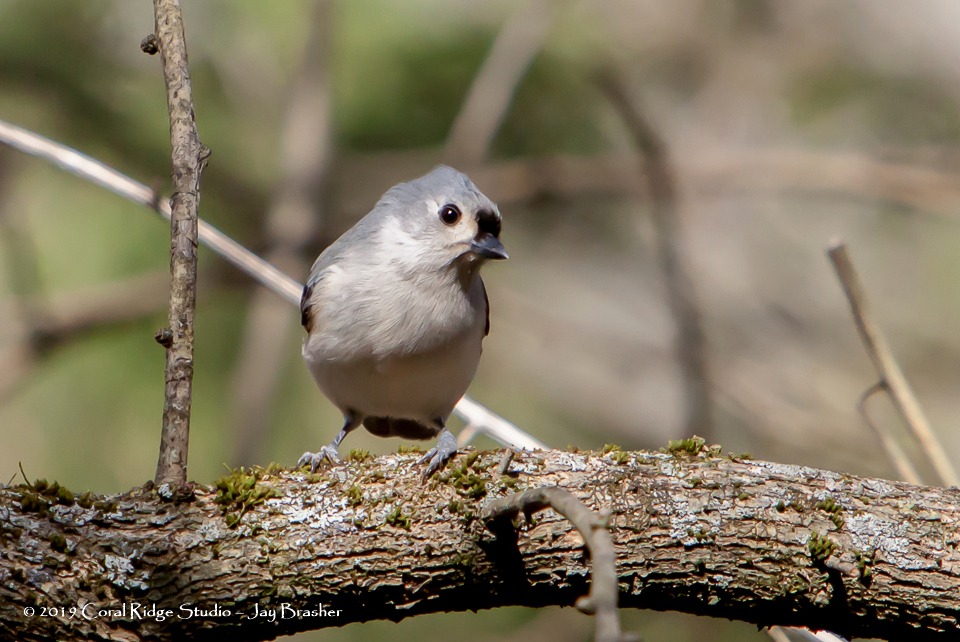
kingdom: Animalia
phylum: Chordata
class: Aves
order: Passeriformes
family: Paridae
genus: Baeolophus
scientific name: Baeolophus bicolor
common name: Tufted titmouse
